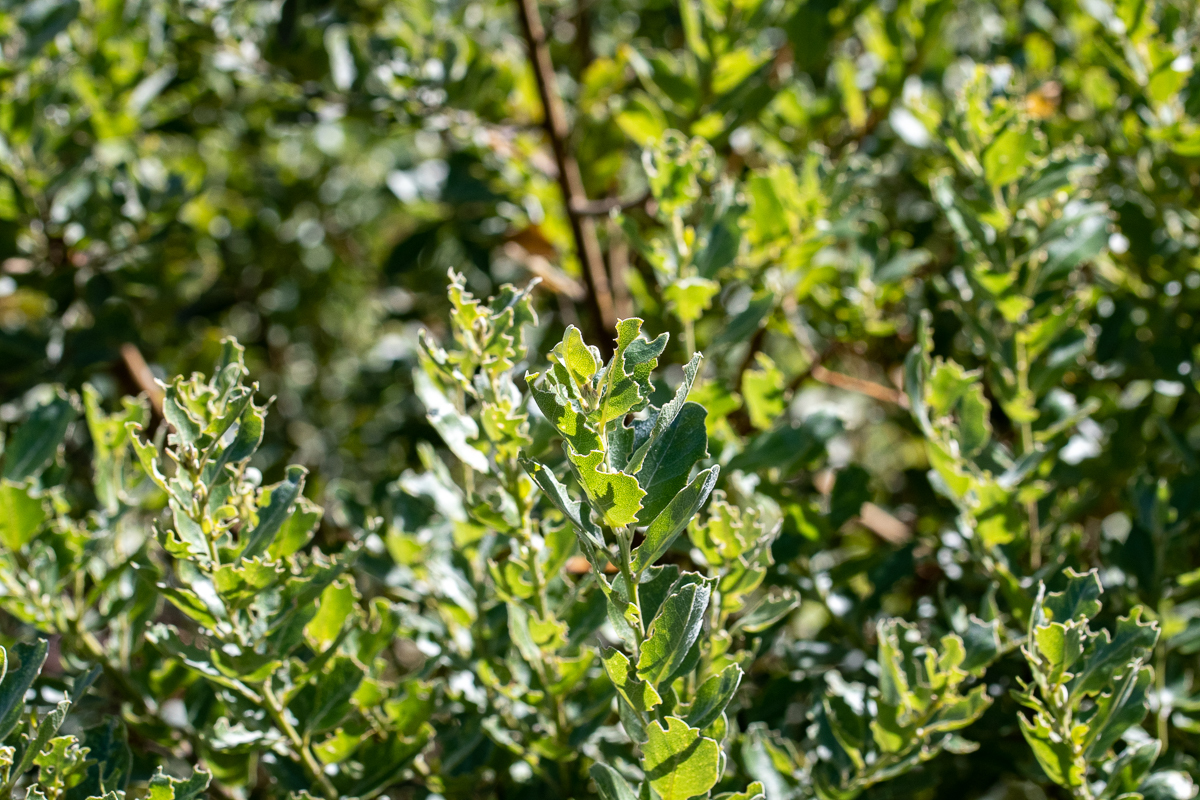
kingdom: Plantae
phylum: Tracheophyta
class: Magnoliopsida
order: Fabales
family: Fabaceae
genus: Podalyria
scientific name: Podalyria calyptrata
